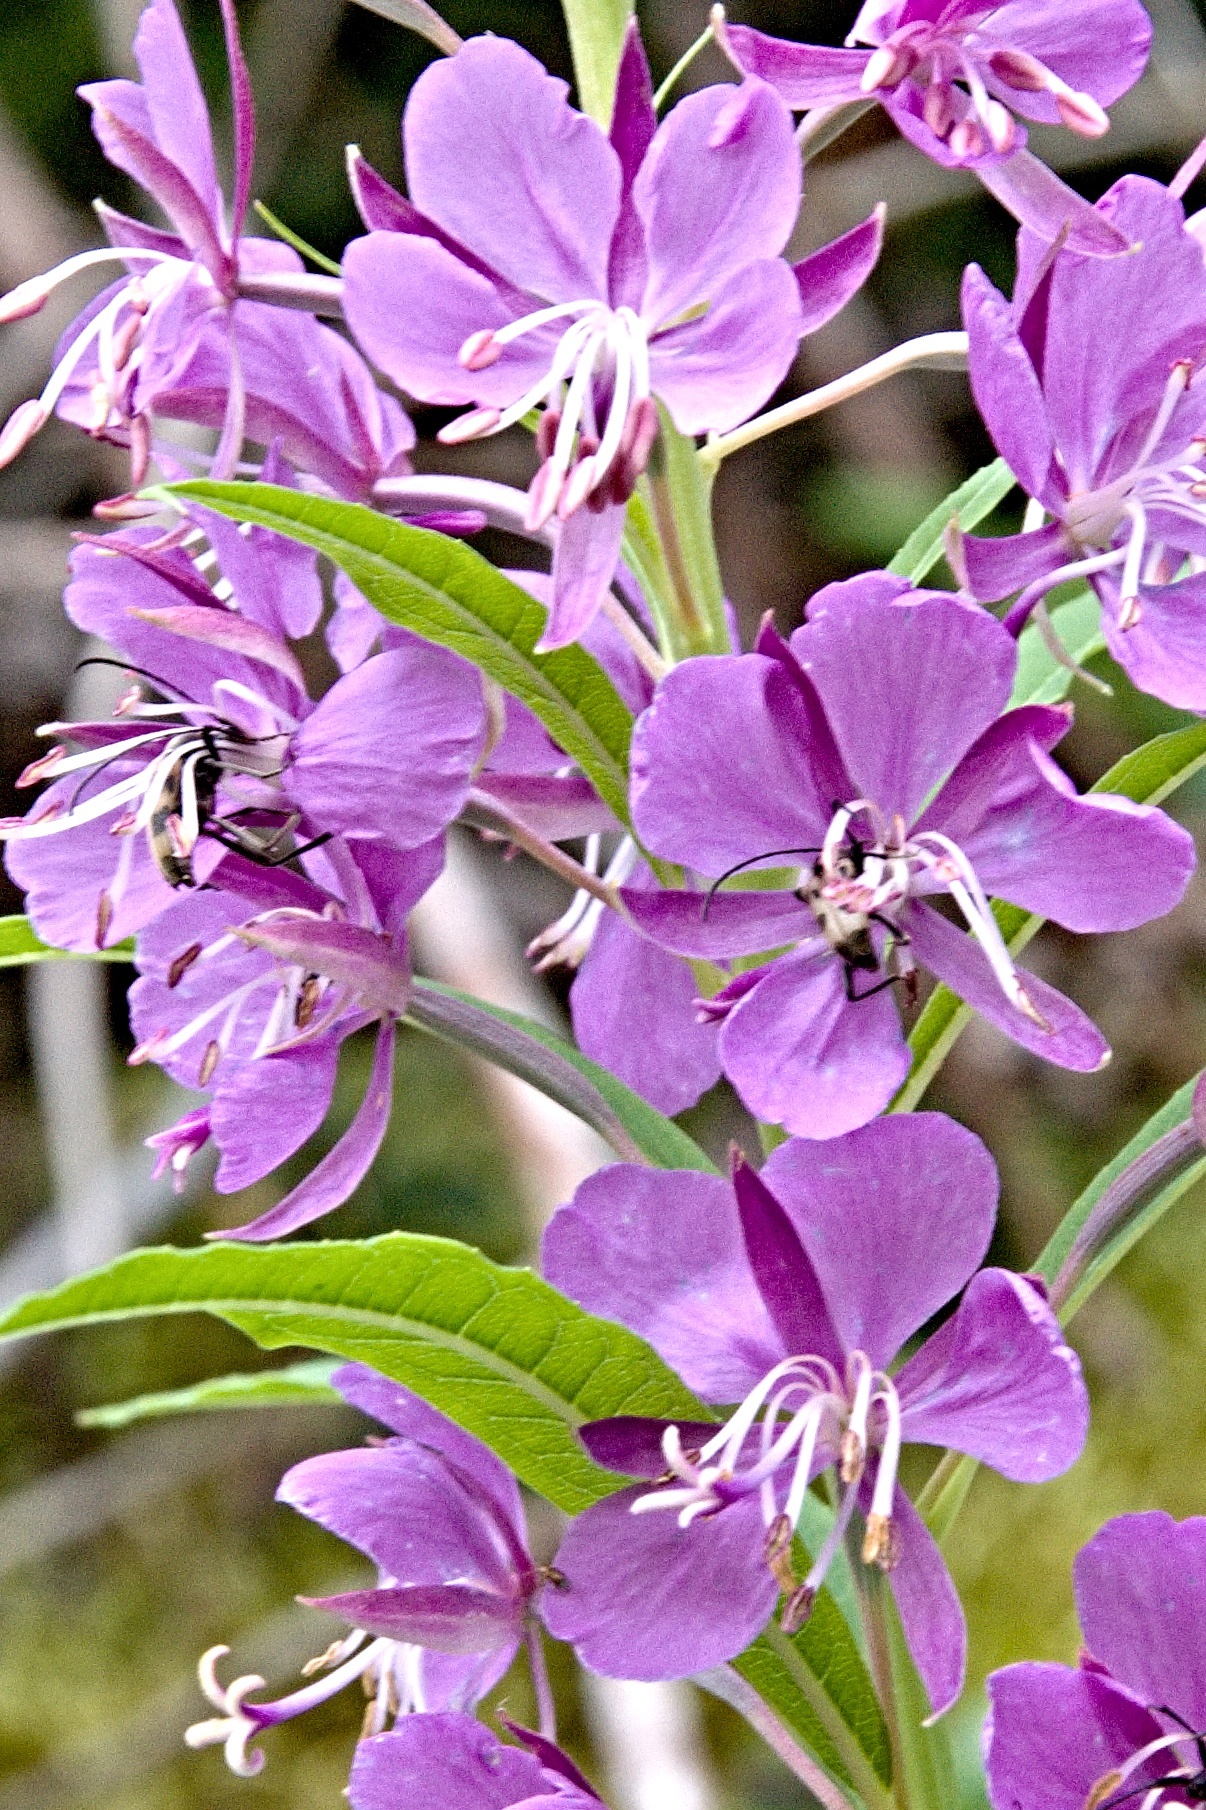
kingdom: Plantae
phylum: Tracheophyta
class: Magnoliopsida
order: Myrtales
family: Onagraceae
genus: Chamaenerion
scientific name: Chamaenerion angustifolium
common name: Fireweed
